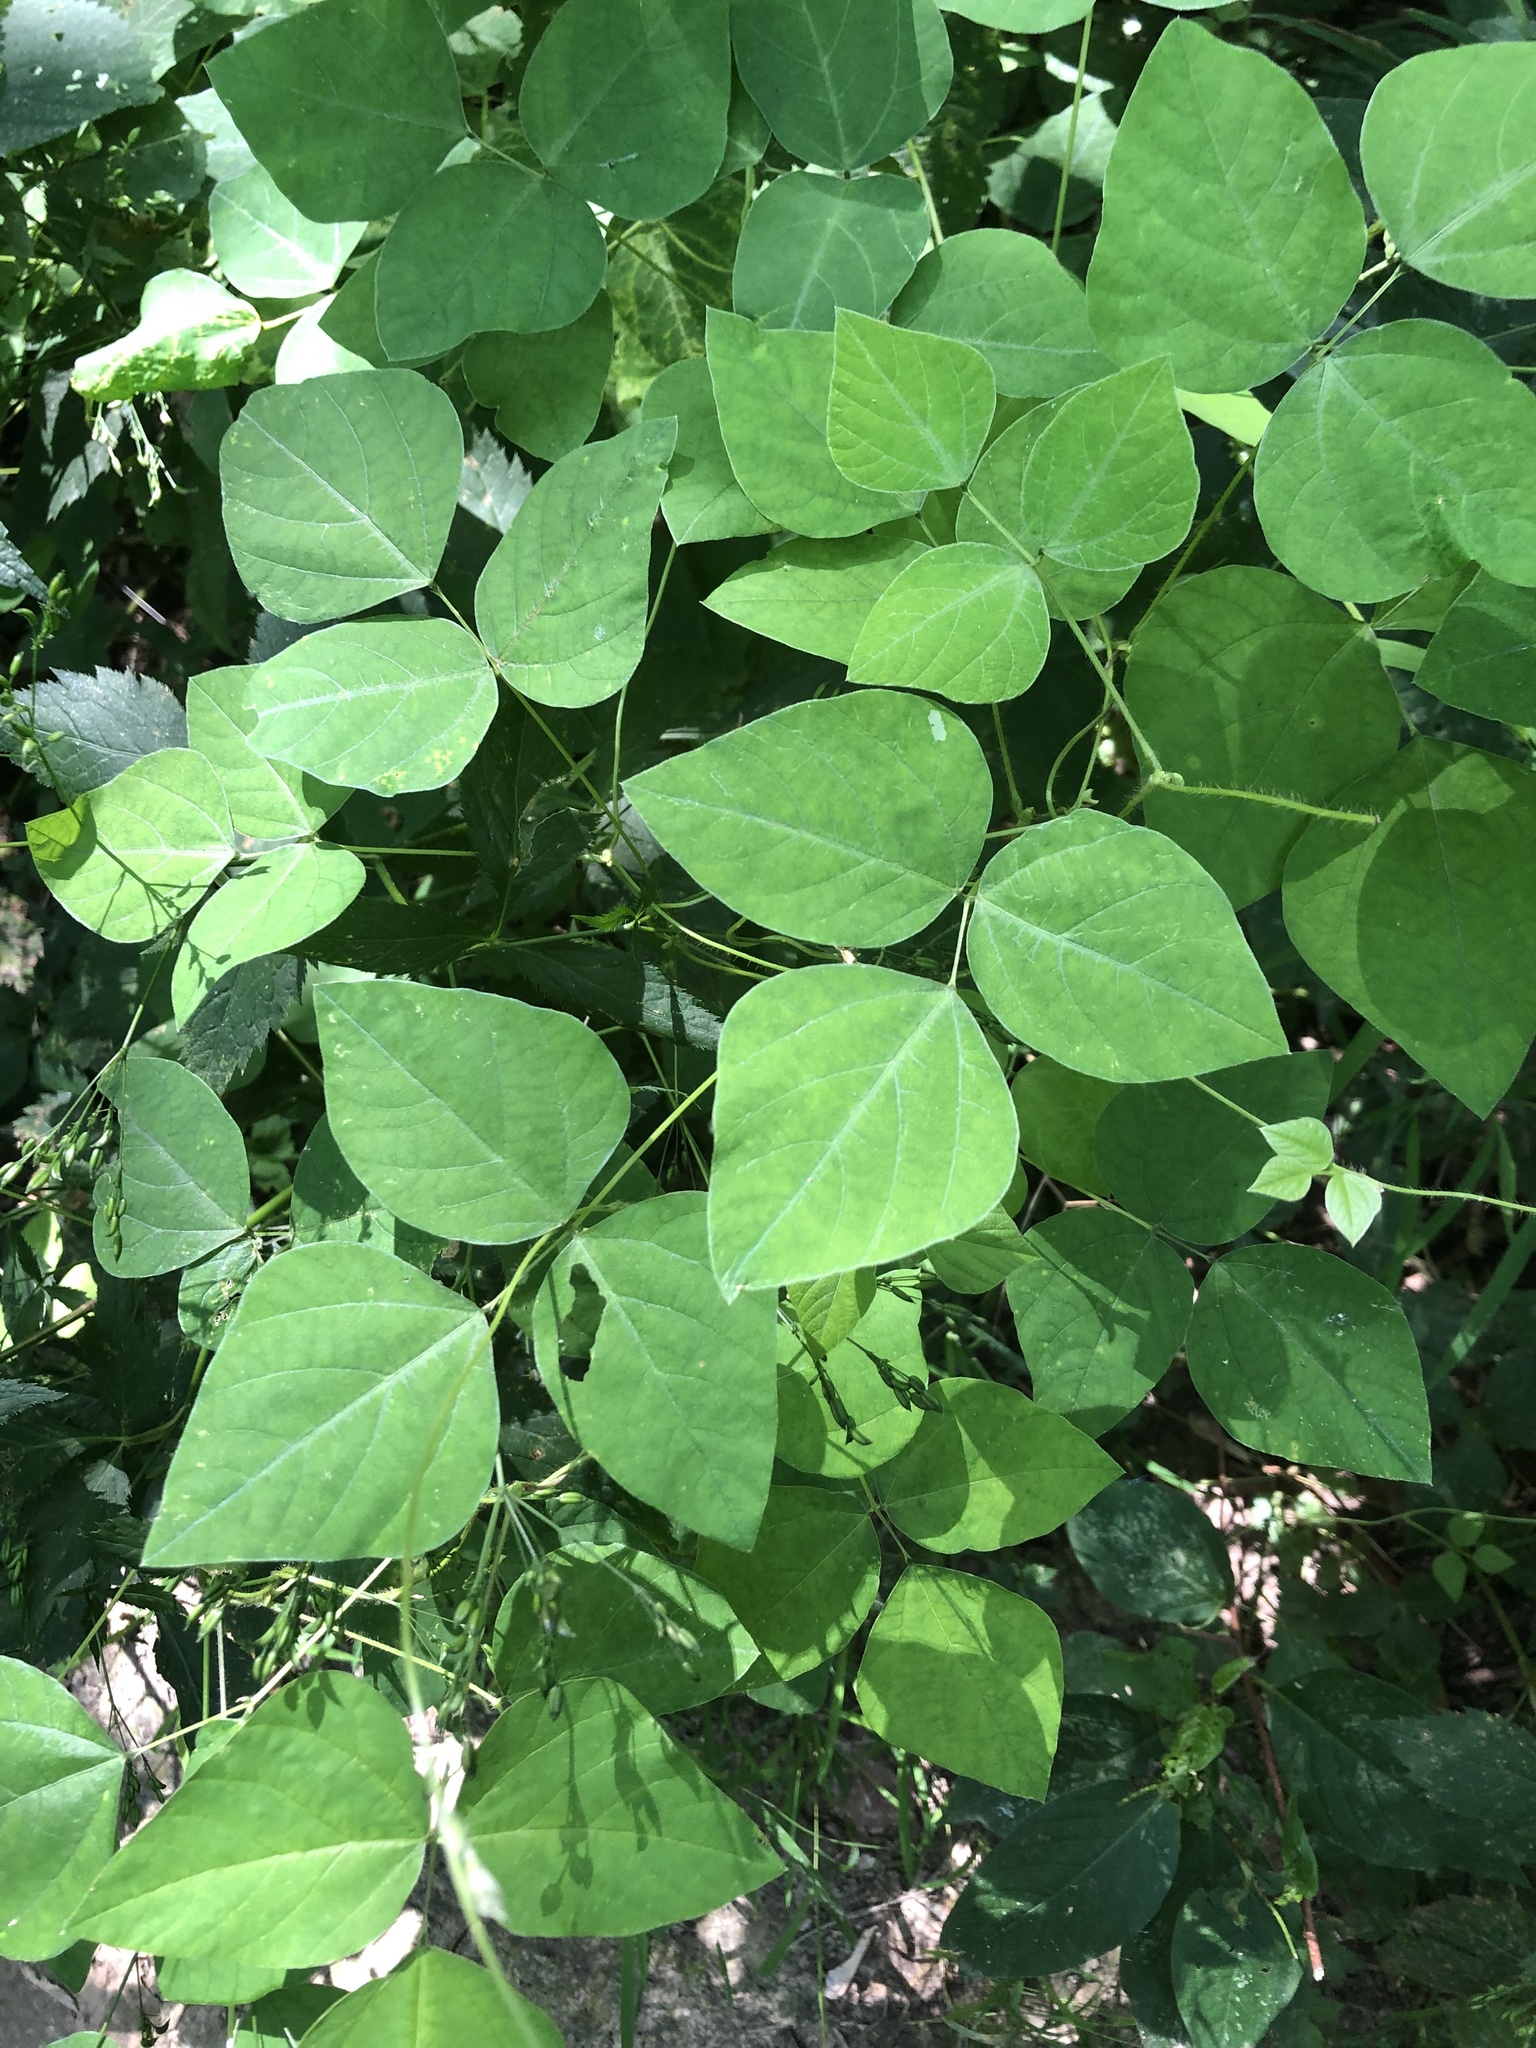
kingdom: Plantae
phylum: Tracheophyta
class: Magnoliopsida
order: Fabales
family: Fabaceae
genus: Amphicarpaea
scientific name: Amphicarpaea bracteata
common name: American hog peanut
